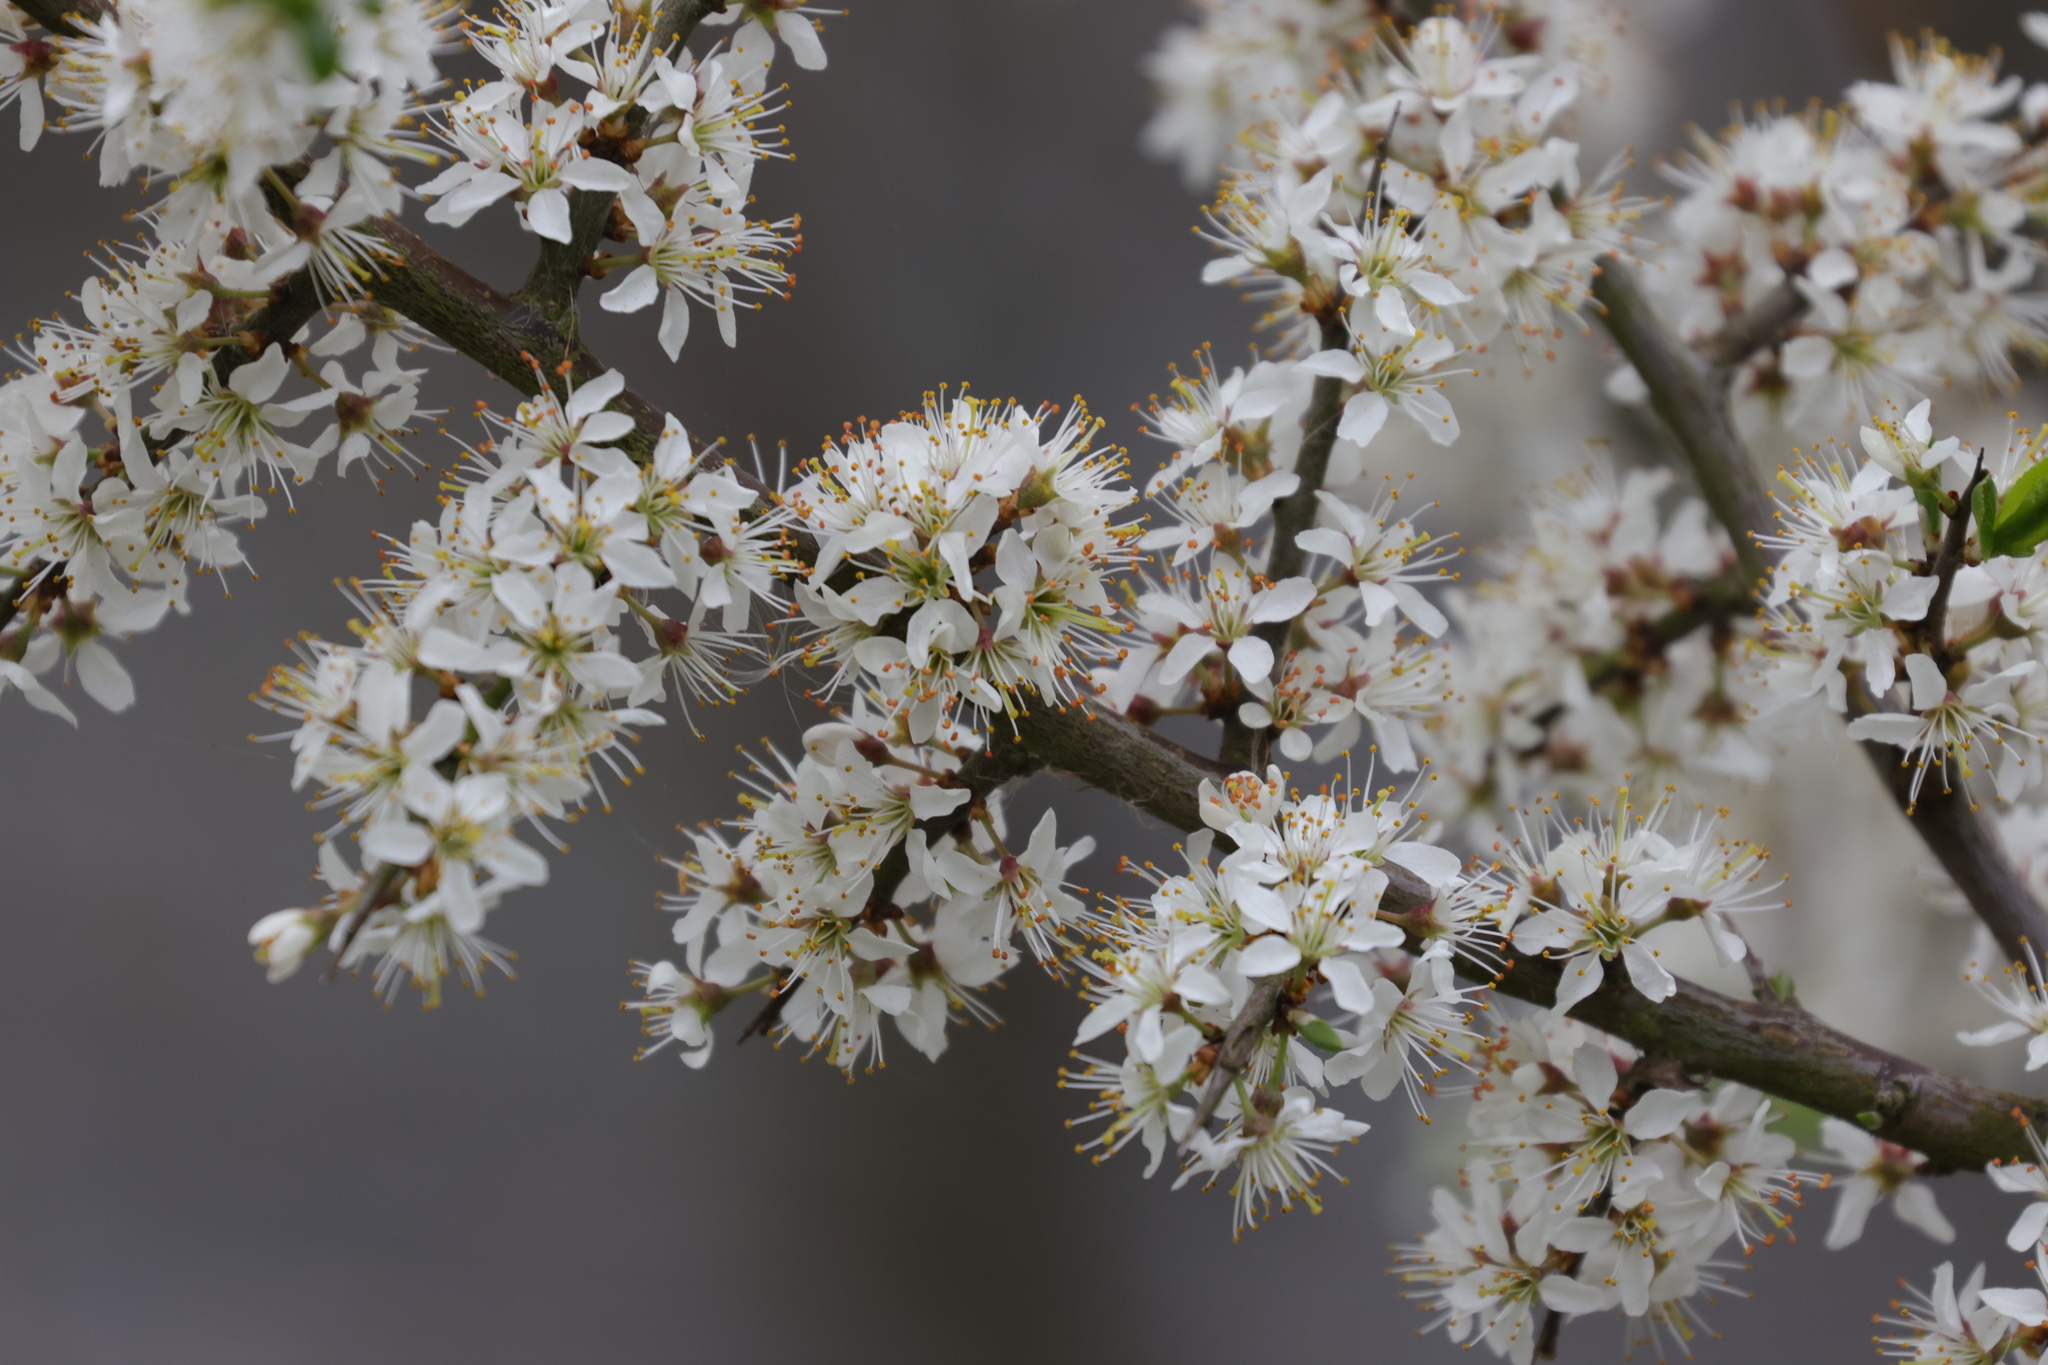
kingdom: Plantae
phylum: Tracheophyta
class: Magnoliopsida
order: Rosales
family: Rosaceae
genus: Prunus
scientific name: Prunus spinosa
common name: Blackthorn
